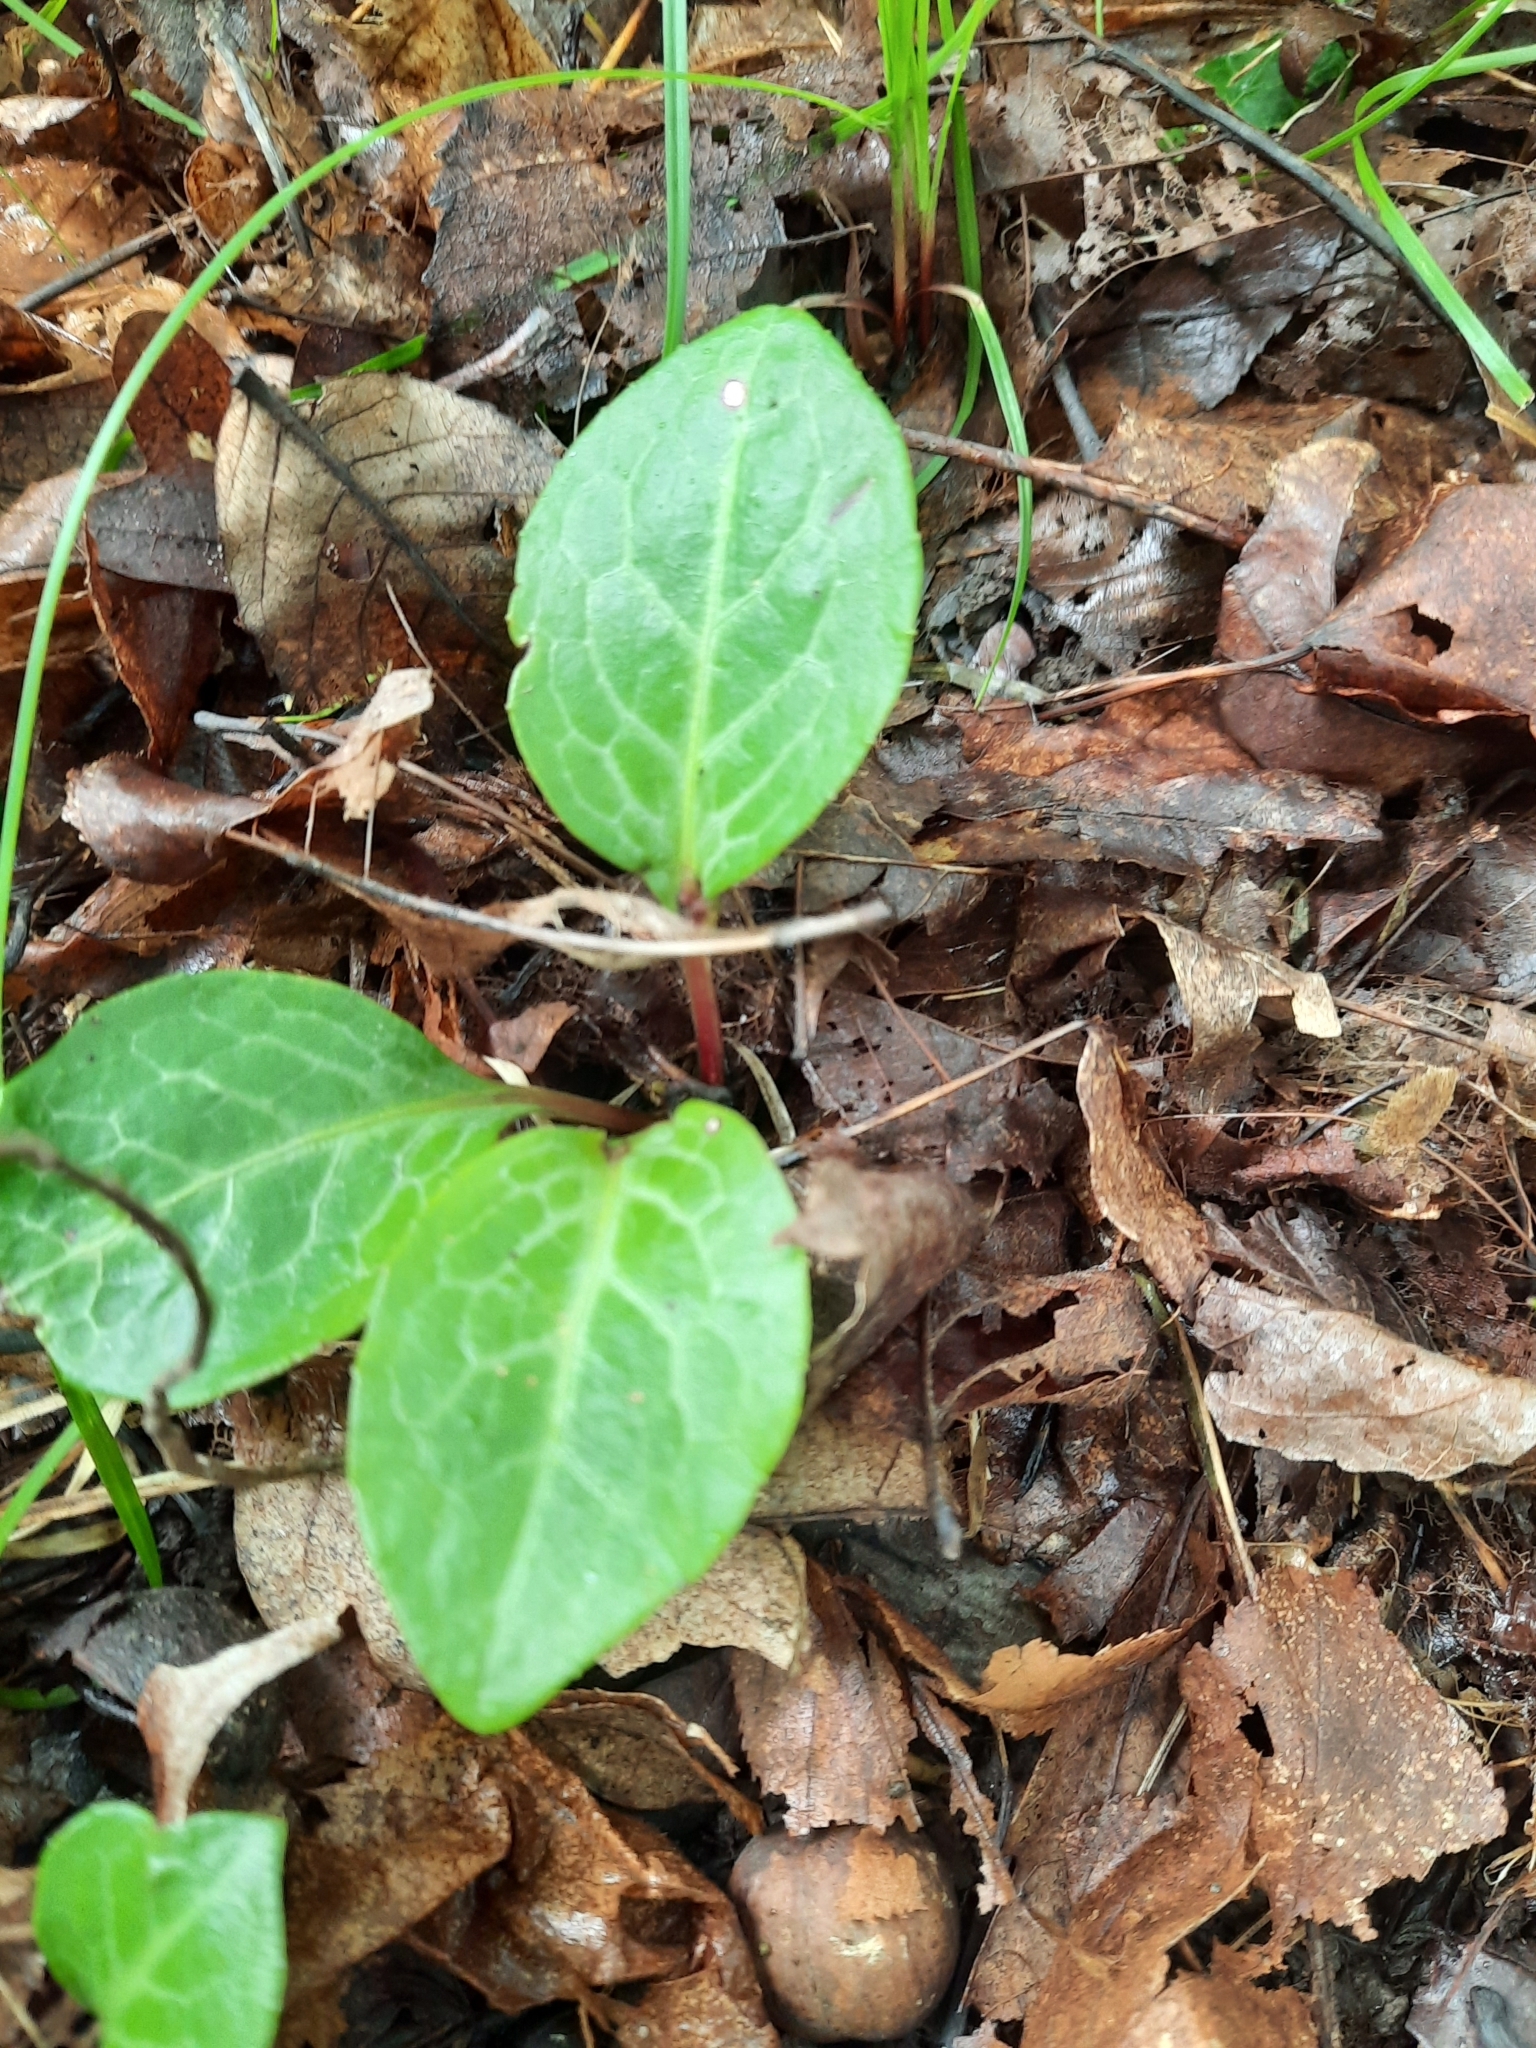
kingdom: Plantae
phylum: Tracheophyta
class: Magnoliopsida
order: Ericales
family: Ericaceae
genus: Pyrola
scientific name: Pyrola americana
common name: American wintergreen
